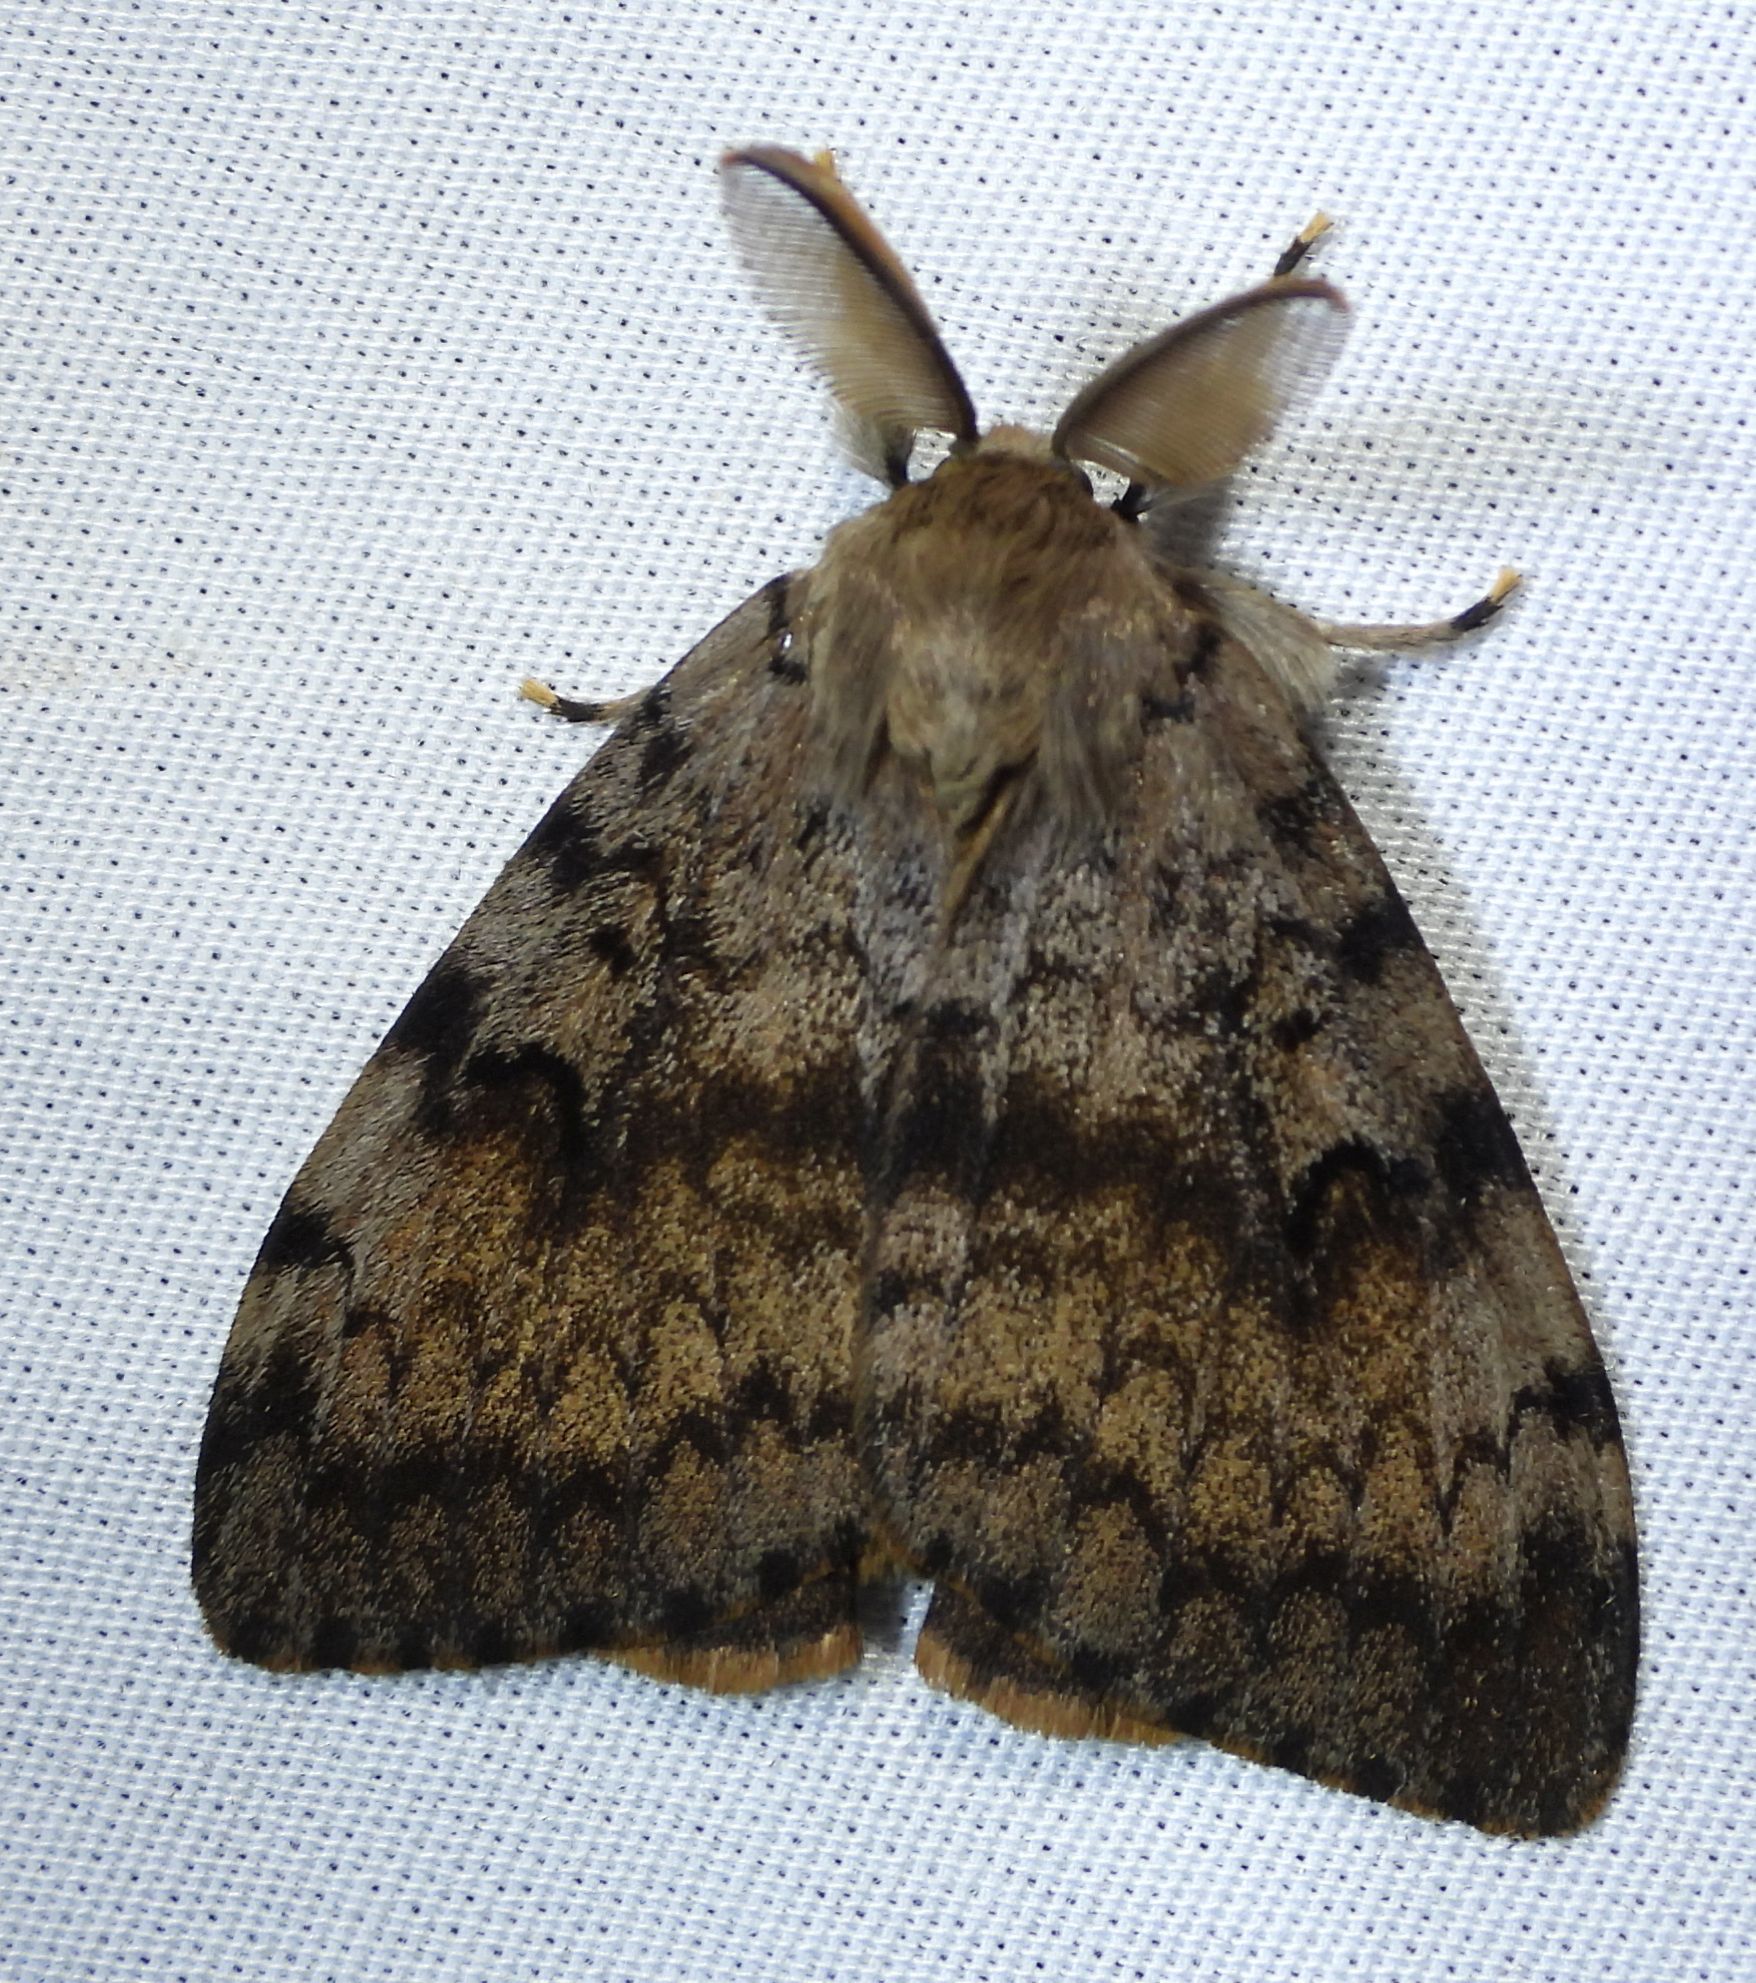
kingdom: Animalia
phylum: Arthropoda
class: Insecta
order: Lepidoptera
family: Erebidae
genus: Lymantria
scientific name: Lymantria dispar
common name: Gypsy moth
